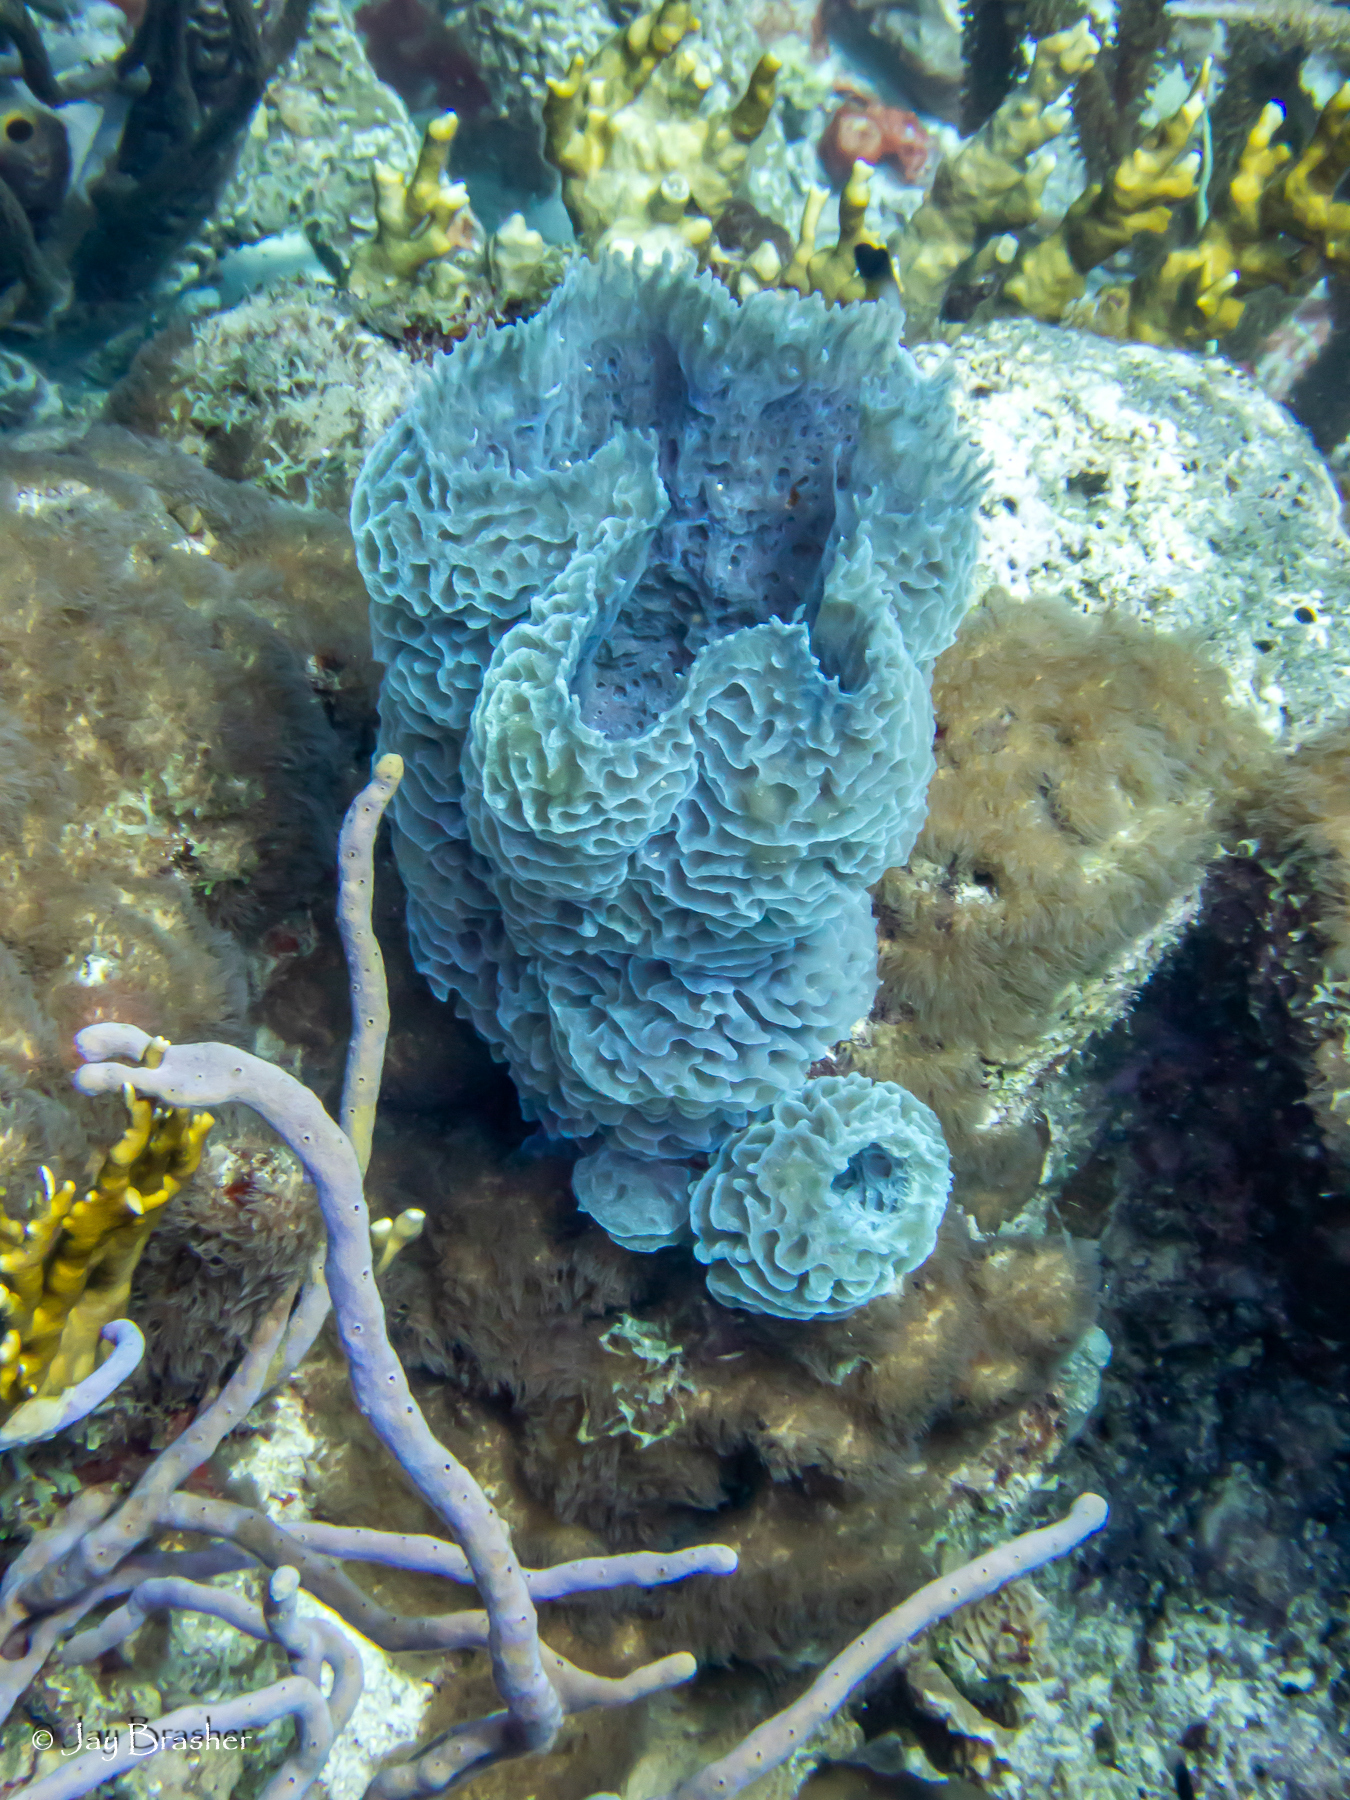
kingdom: Animalia
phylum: Porifera
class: Demospongiae
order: Haplosclerida
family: Callyspongiidae
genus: Callyspongia
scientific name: Callyspongia plicifera
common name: Azure vase sponge
